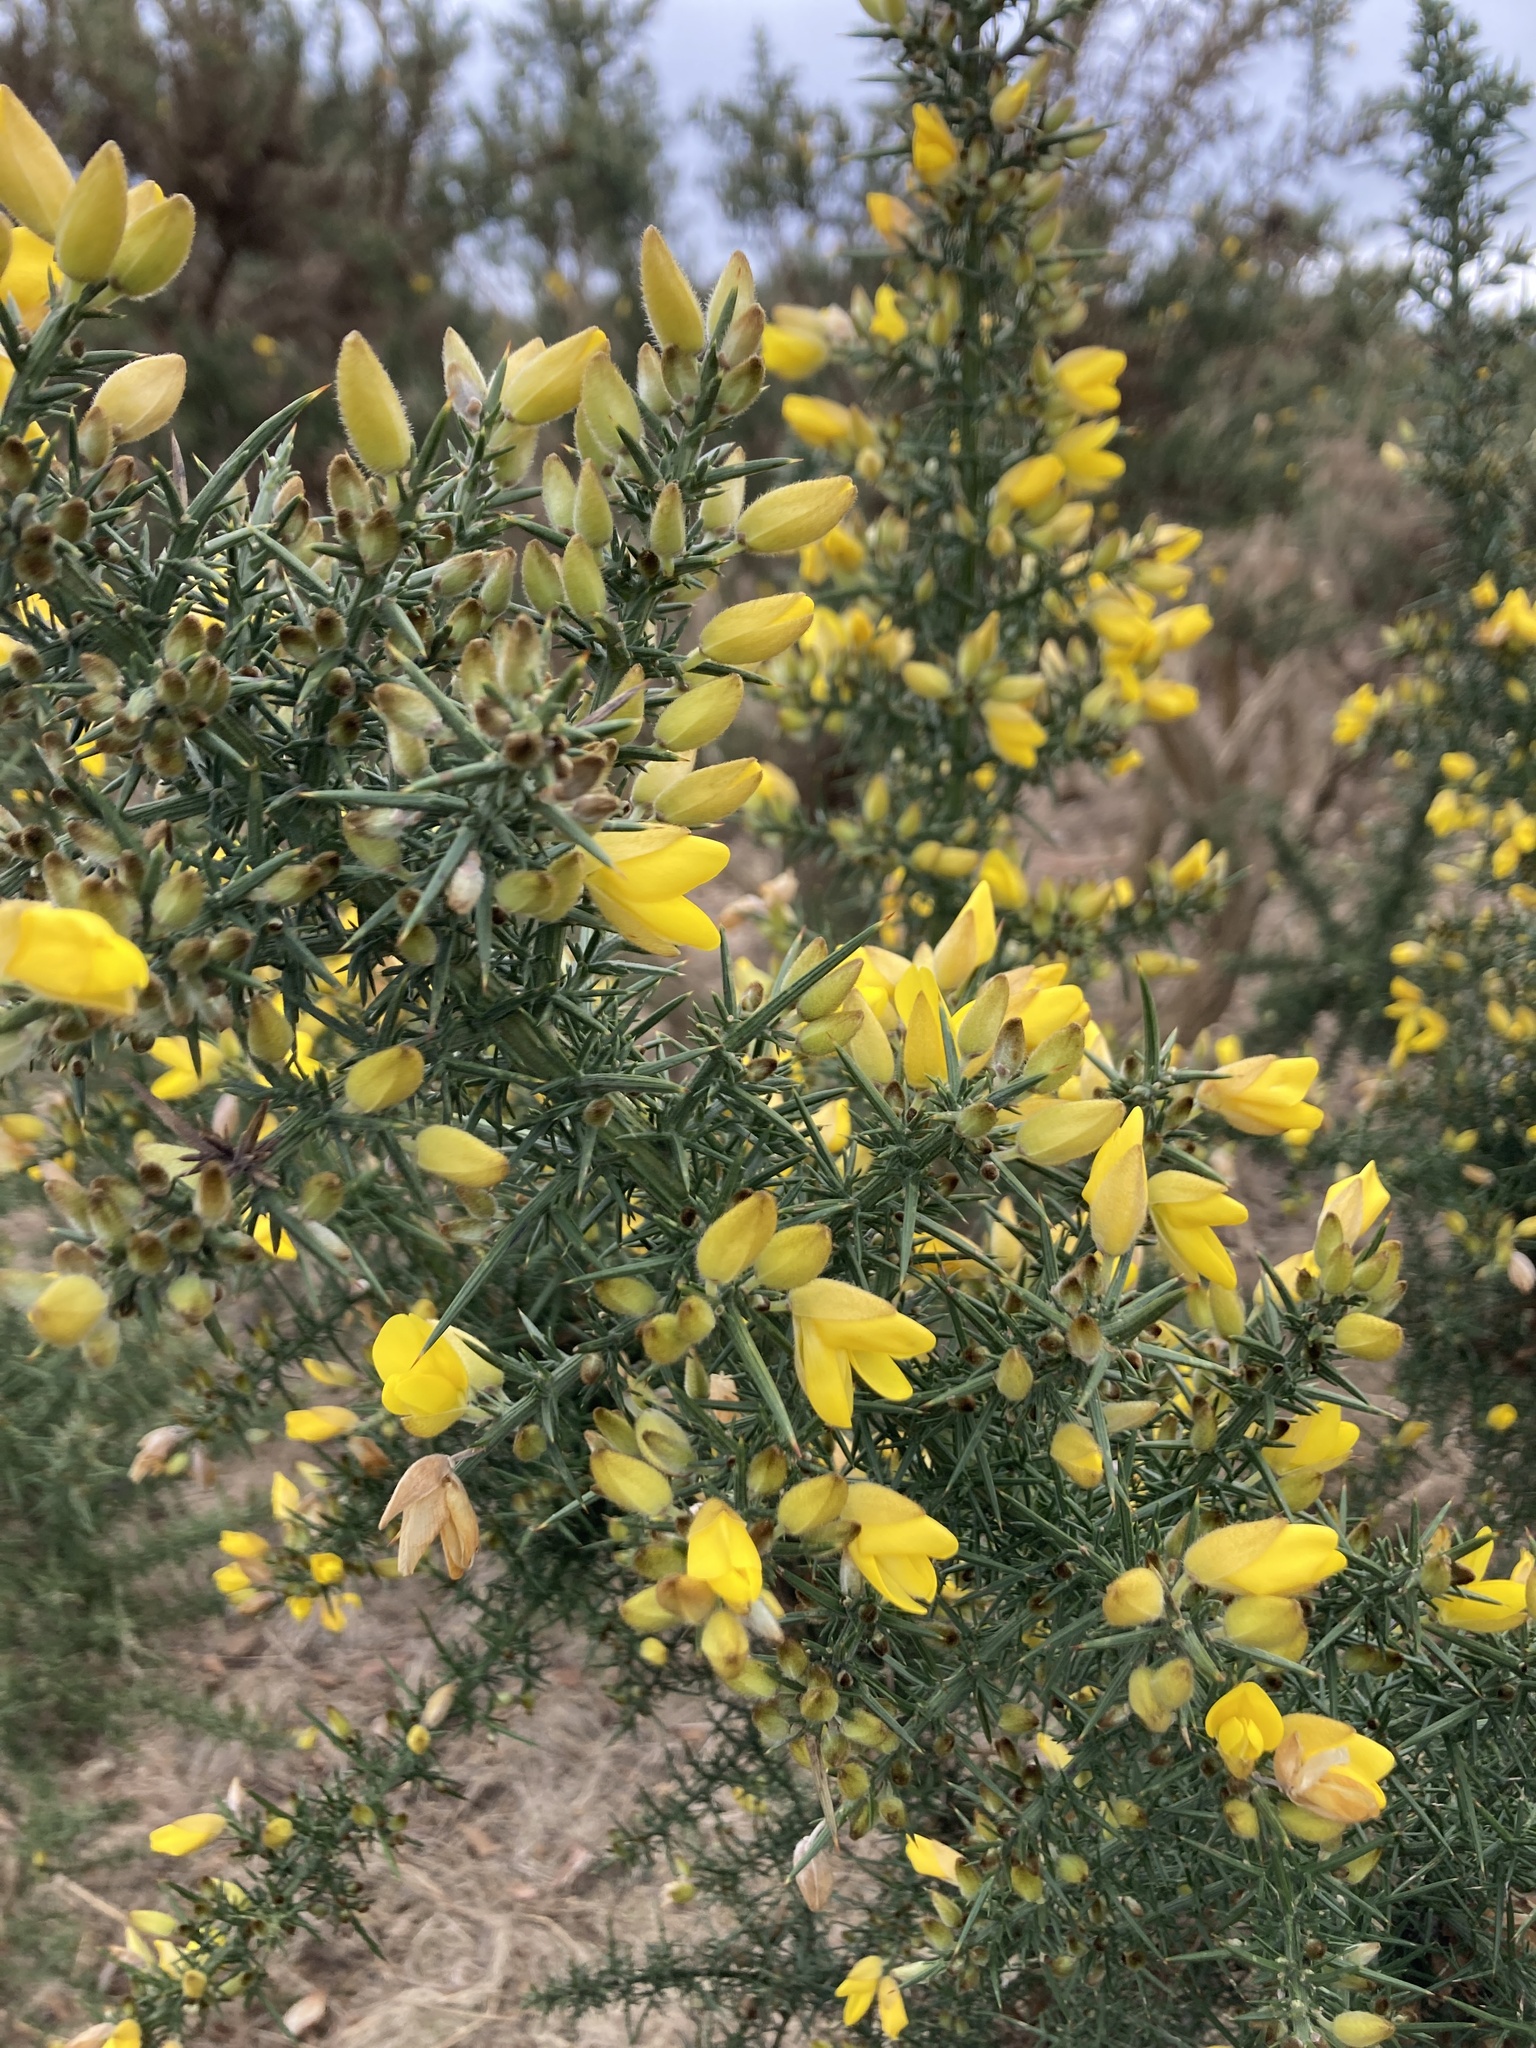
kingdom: Plantae
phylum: Tracheophyta
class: Magnoliopsida
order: Fabales
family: Fabaceae
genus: Ulex
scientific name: Ulex europaeus
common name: Common gorse
